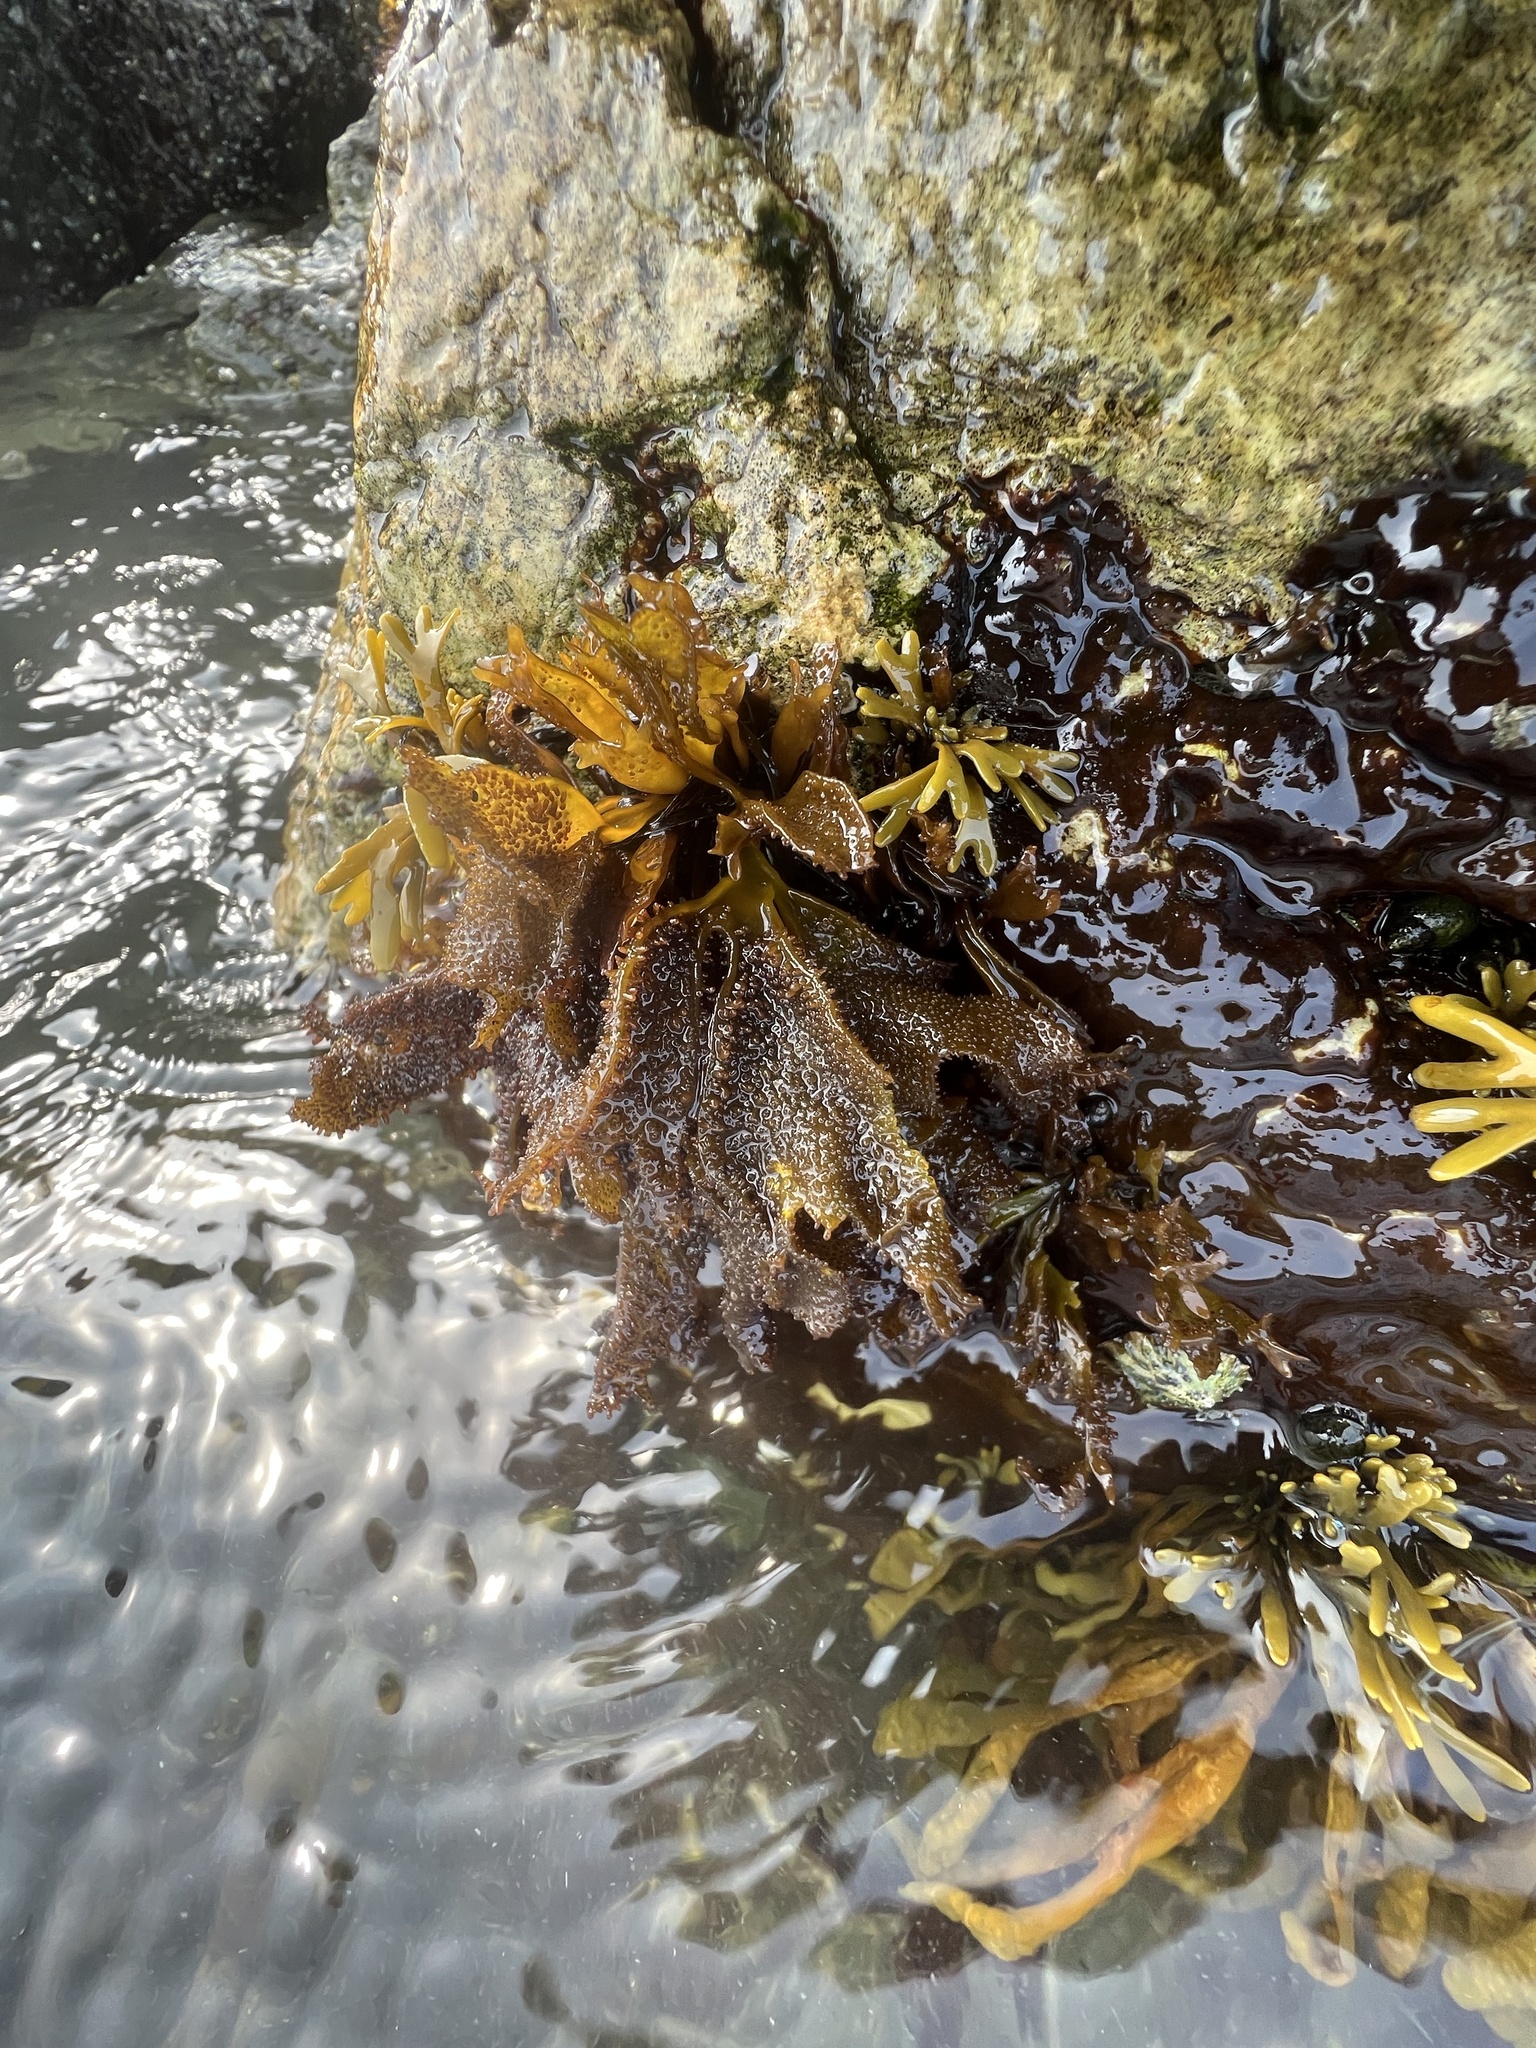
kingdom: Plantae
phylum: Rhodophyta
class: Florideophyceae
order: Gigartinales
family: Phyllophoraceae
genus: Mastocarpus
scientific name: Mastocarpus papillatus
